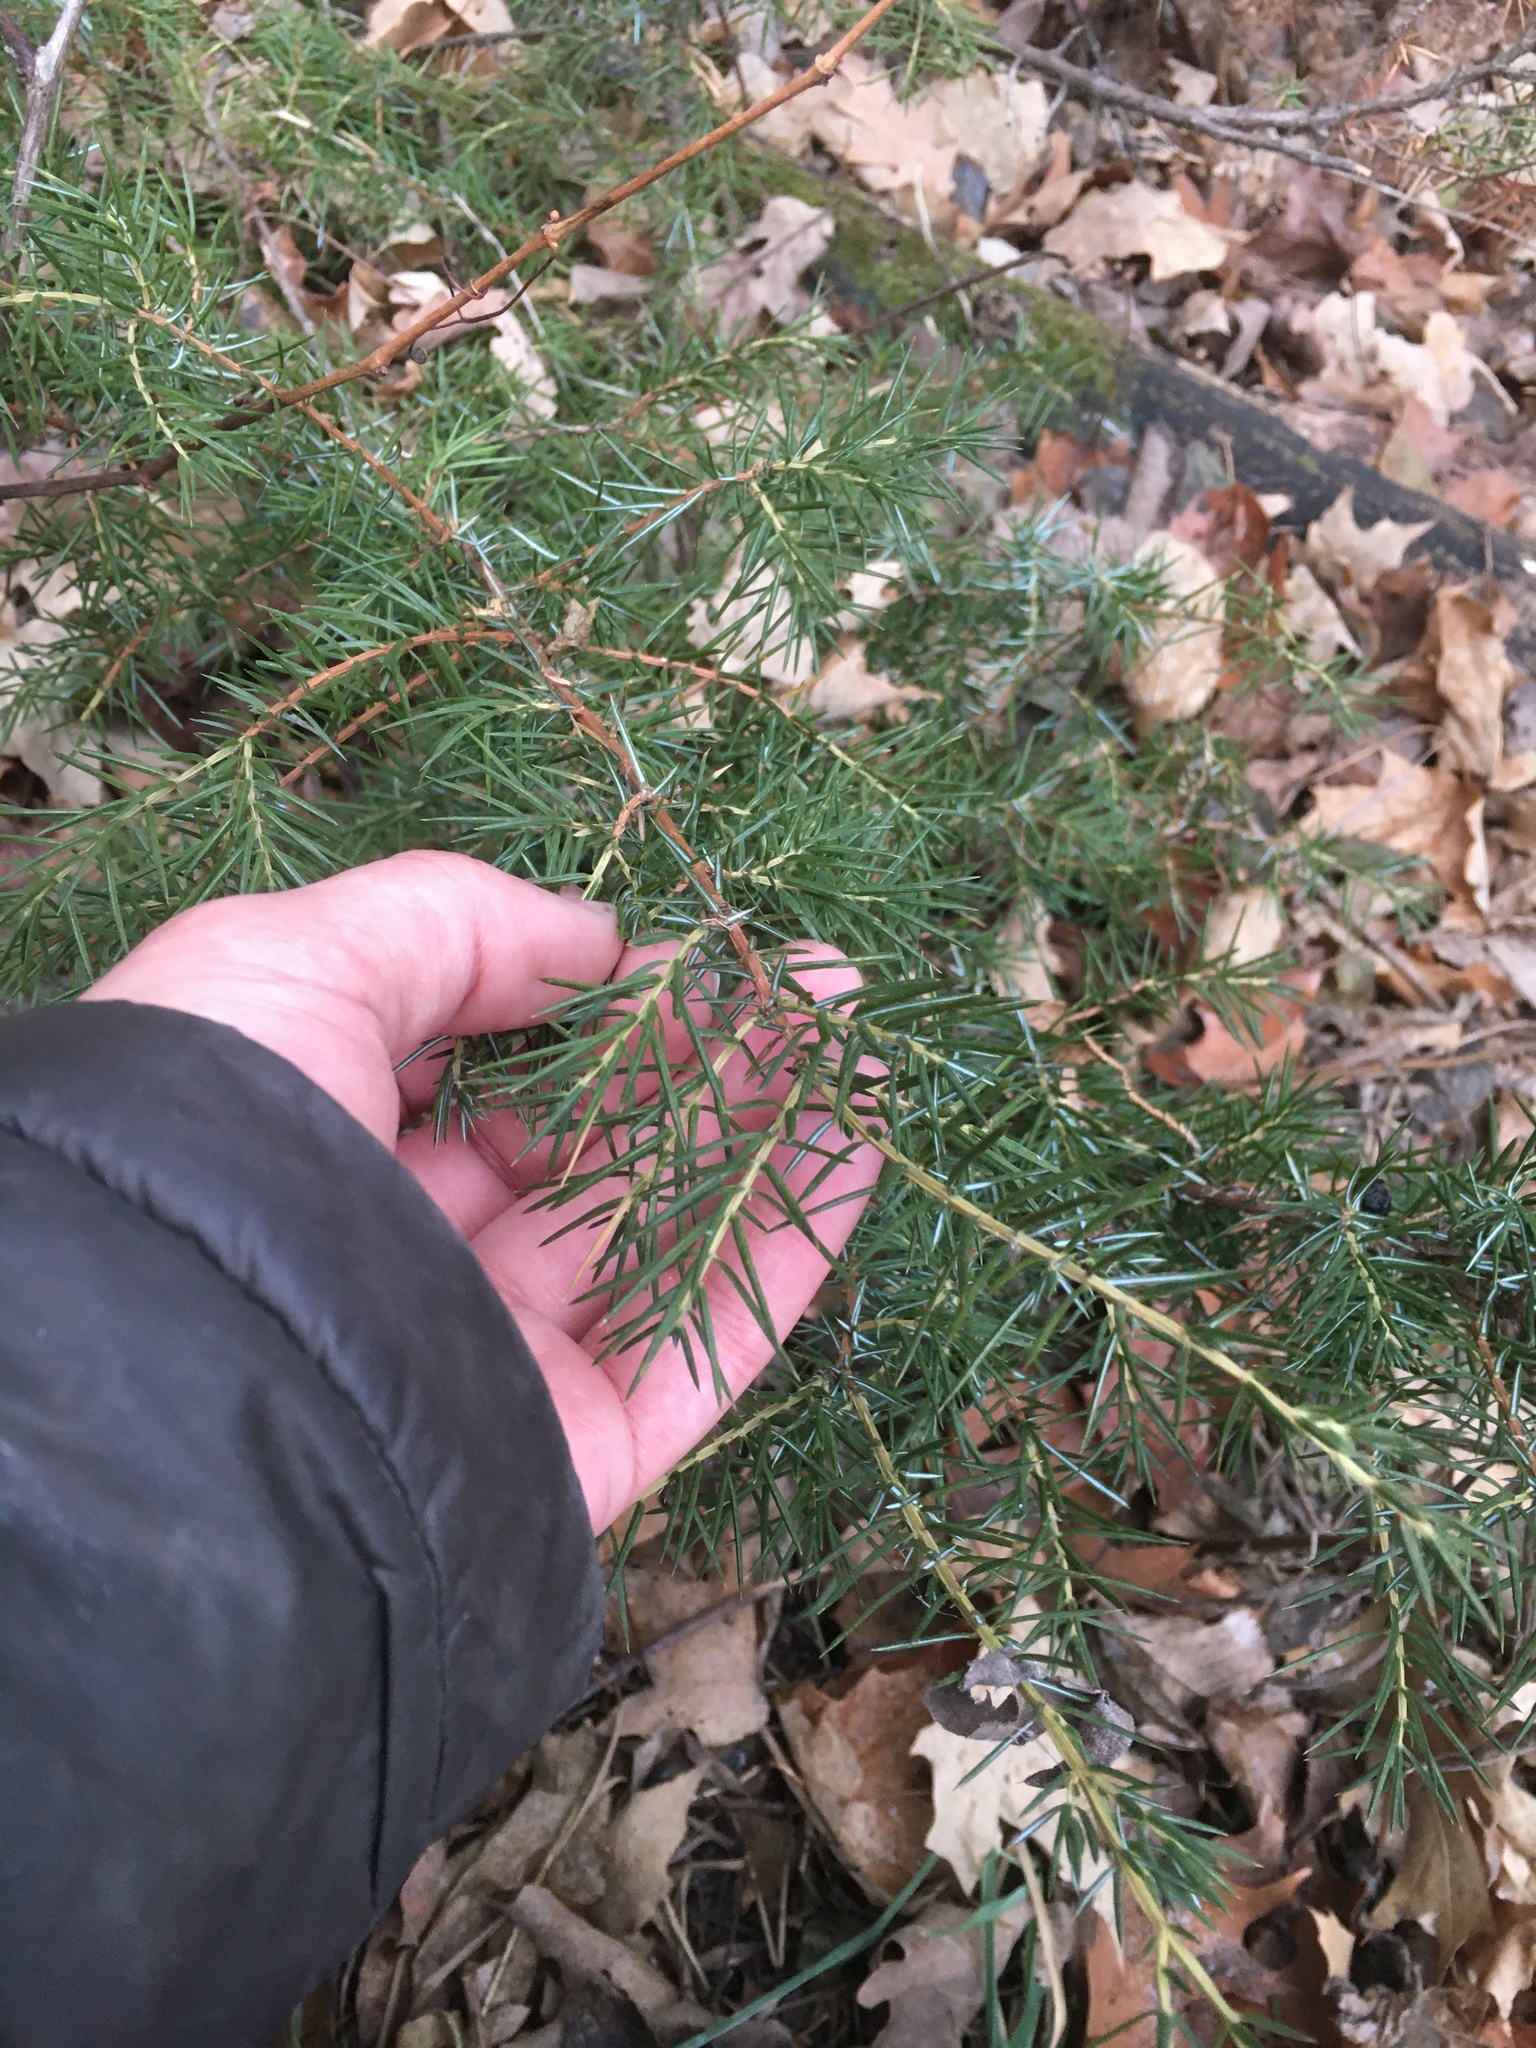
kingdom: Plantae
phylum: Tracheophyta
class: Pinopsida
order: Pinales
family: Cupressaceae
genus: Juniperus
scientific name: Juniperus communis
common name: Common juniper
